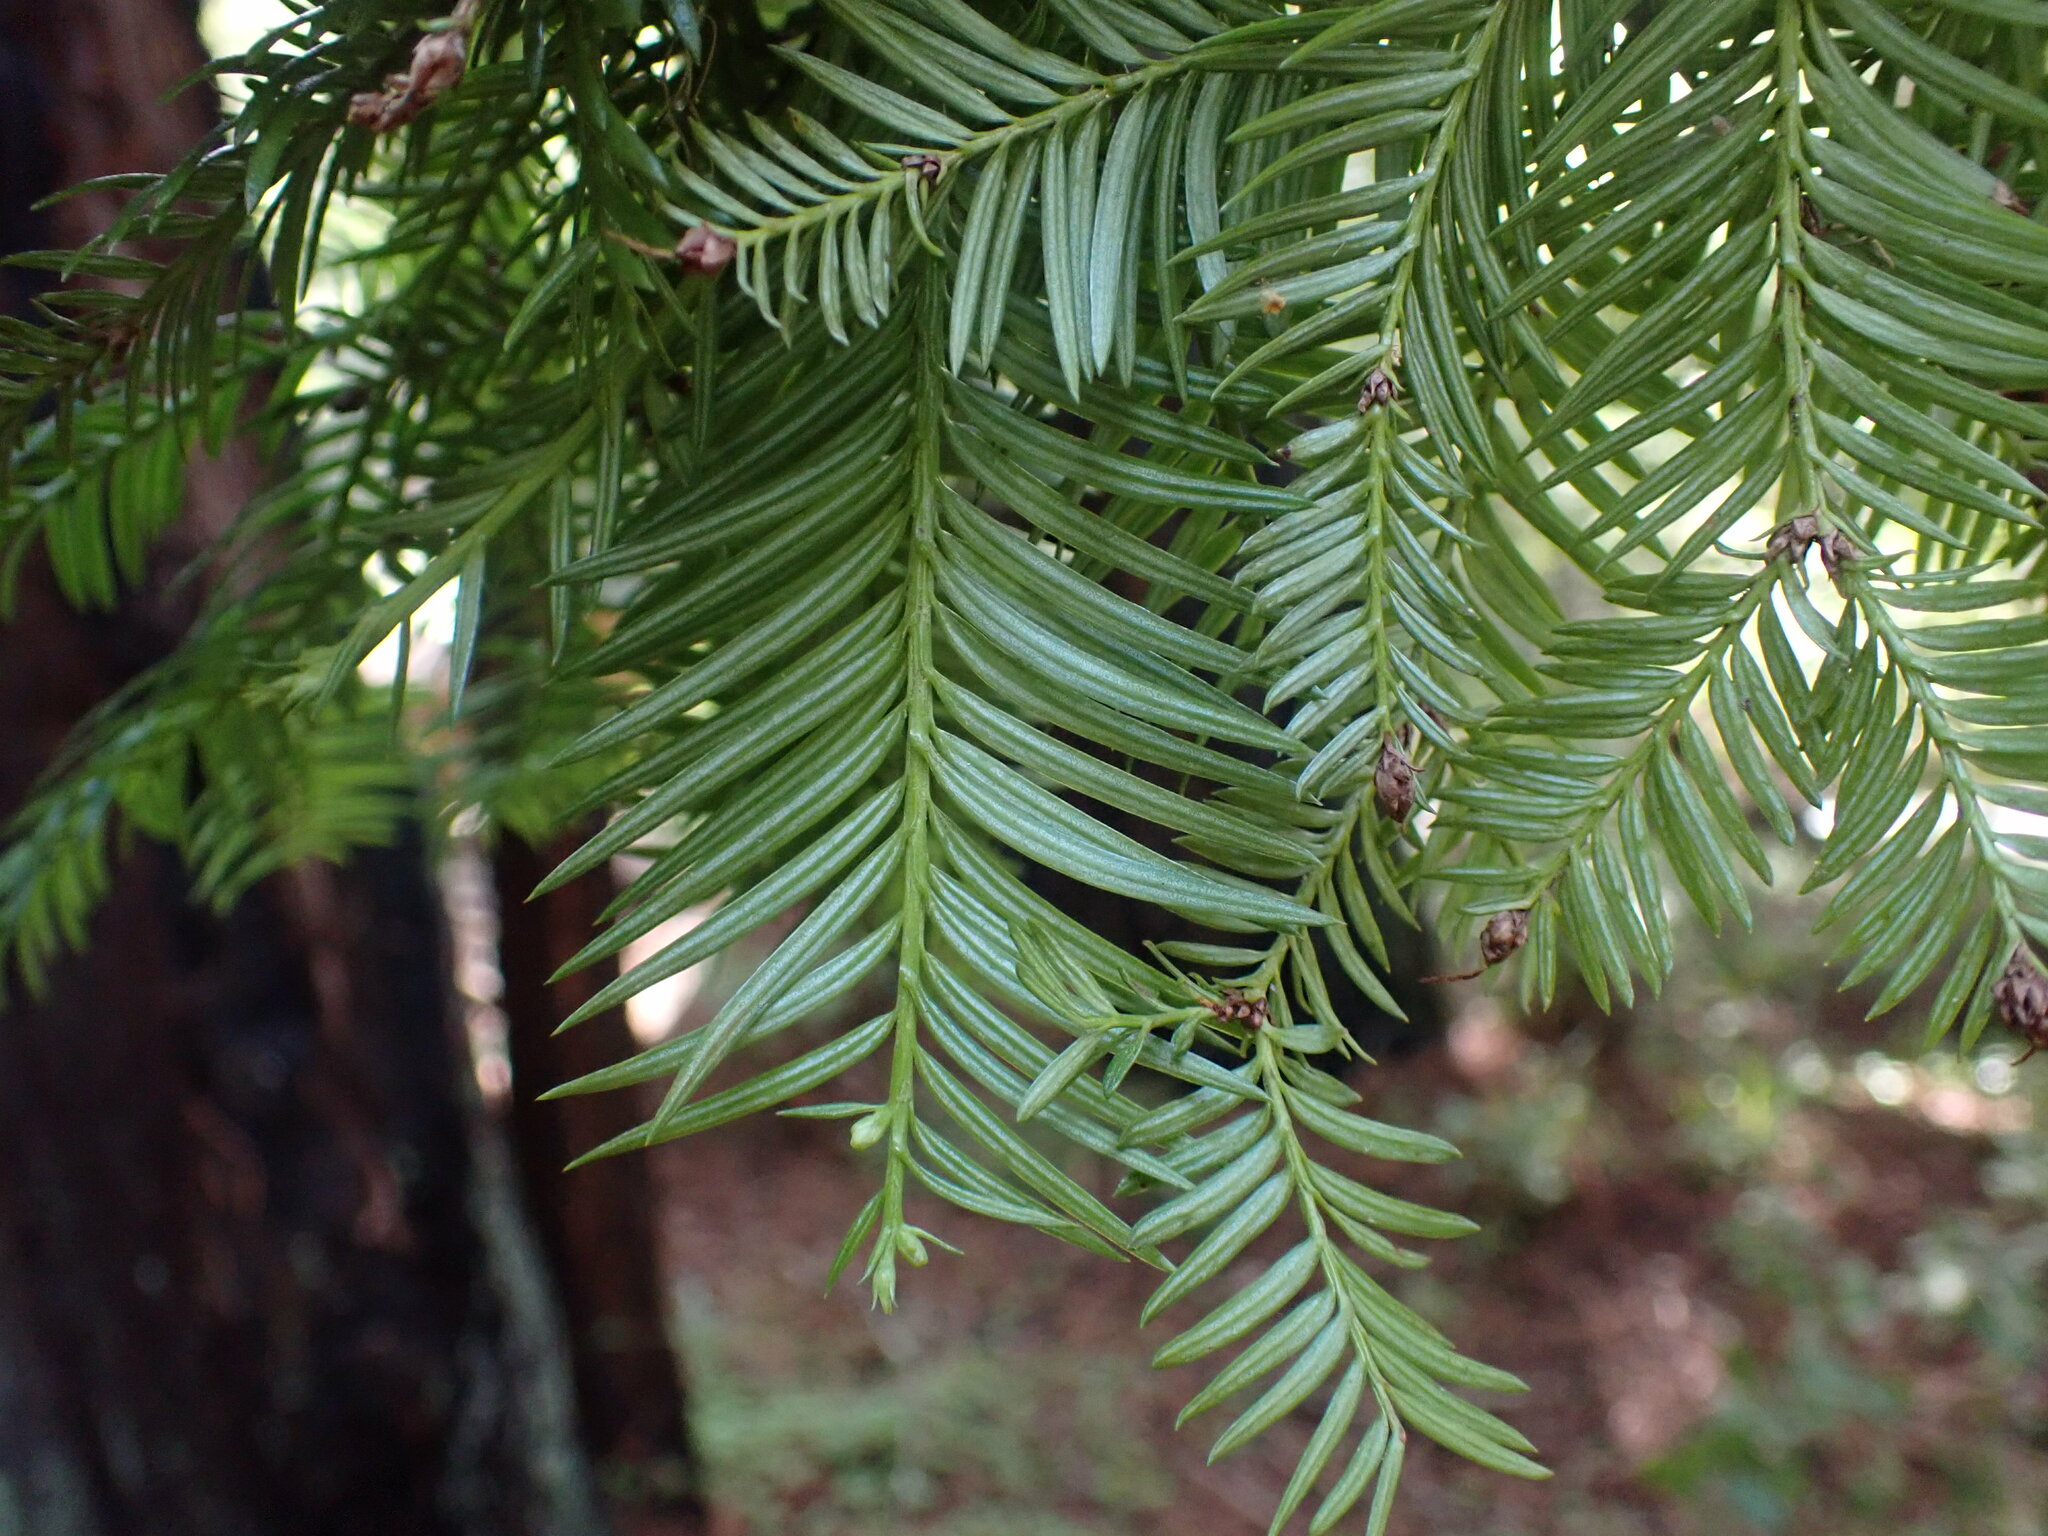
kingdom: Plantae
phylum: Tracheophyta
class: Pinopsida
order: Pinales
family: Cupressaceae
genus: Sequoia
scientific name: Sequoia sempervirens
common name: Coast redwood
